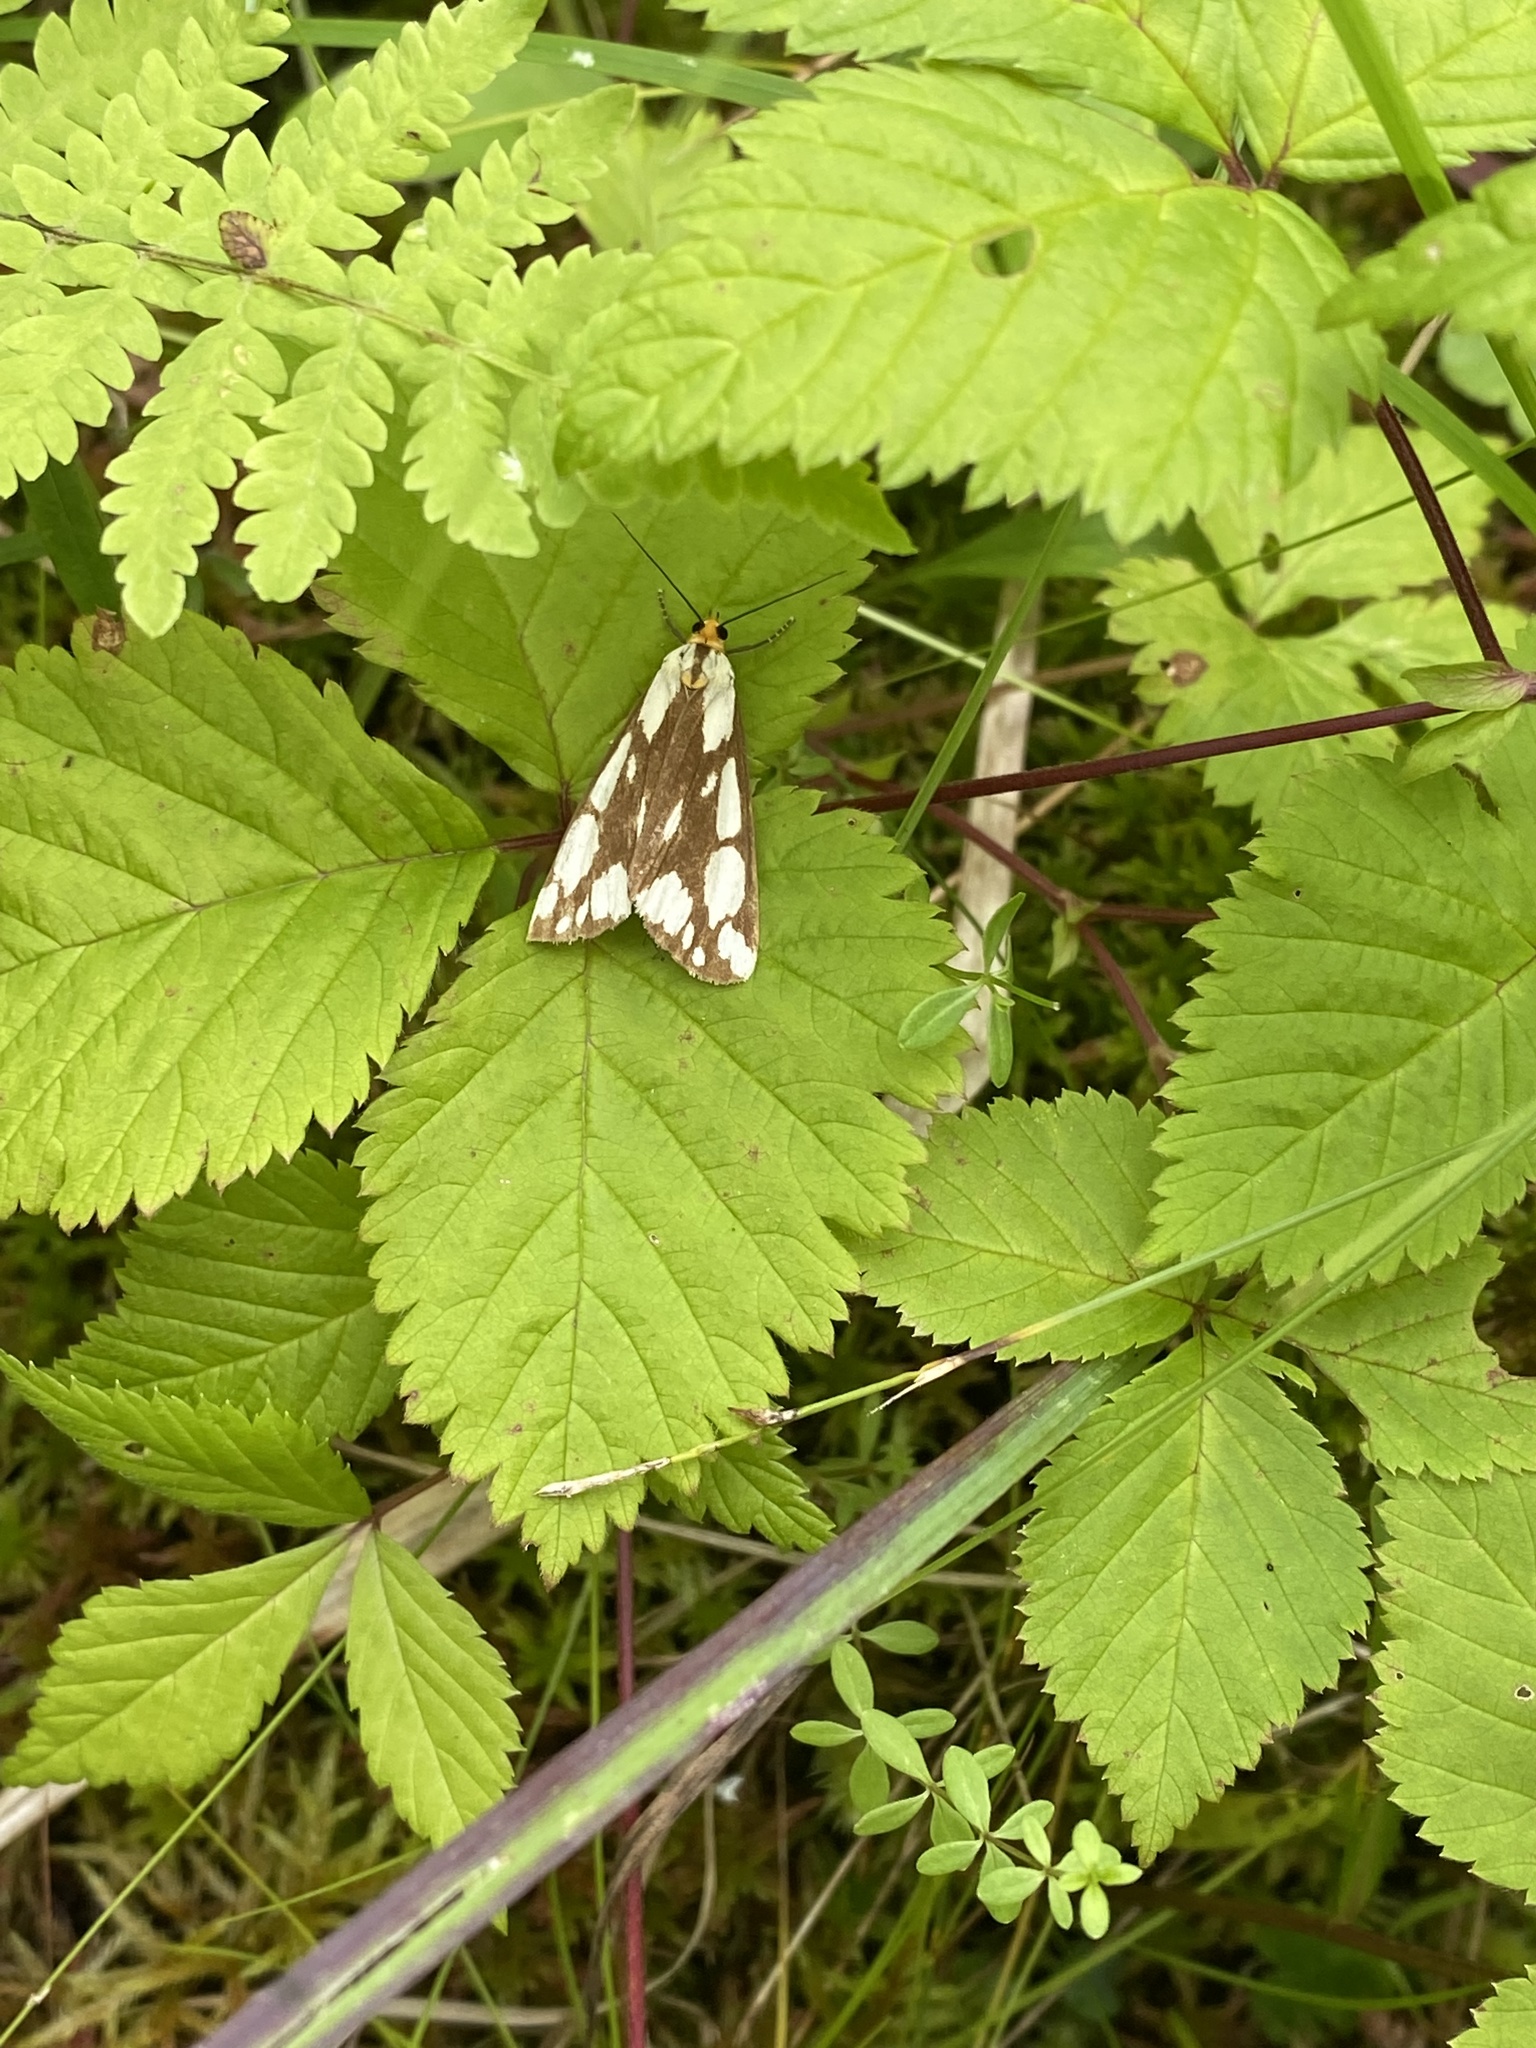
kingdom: Animalia
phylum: Arthropoda
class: Insecta
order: Lepidoptera
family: Erebidae
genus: Haploa
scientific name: Haploa confusa
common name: Confused haploa moth
